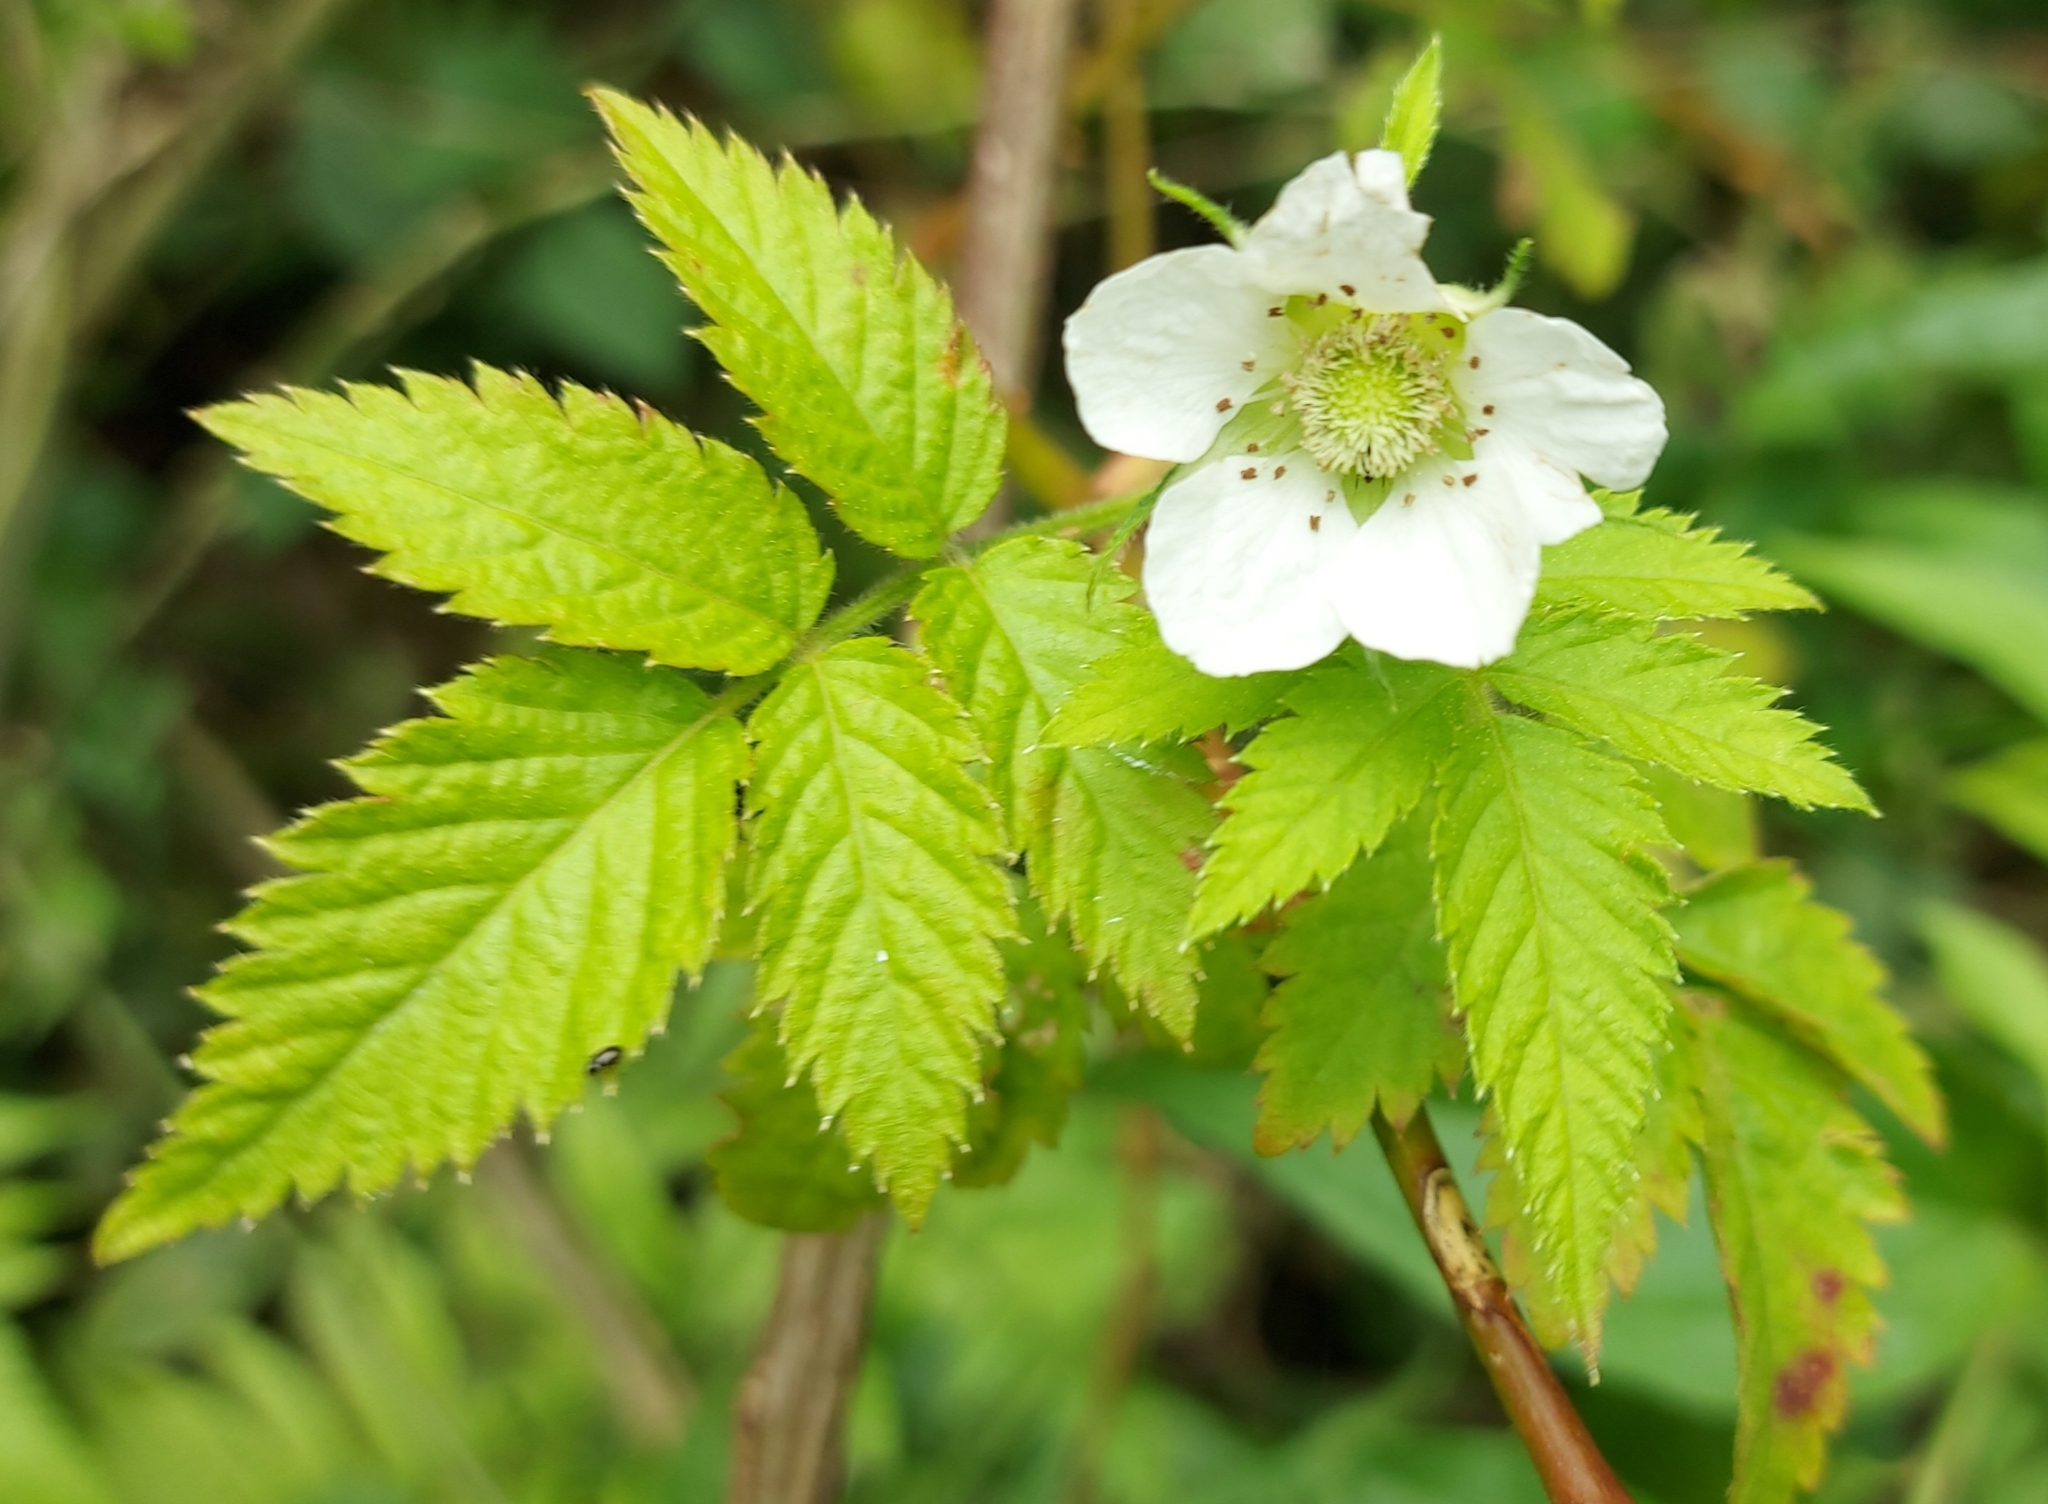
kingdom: Plantae
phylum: Tracheophyta
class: Magnoliopsida
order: Rosales
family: Rosaceae
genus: Rubus
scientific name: Rubus rosifolius
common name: Roseleaf raspberry
